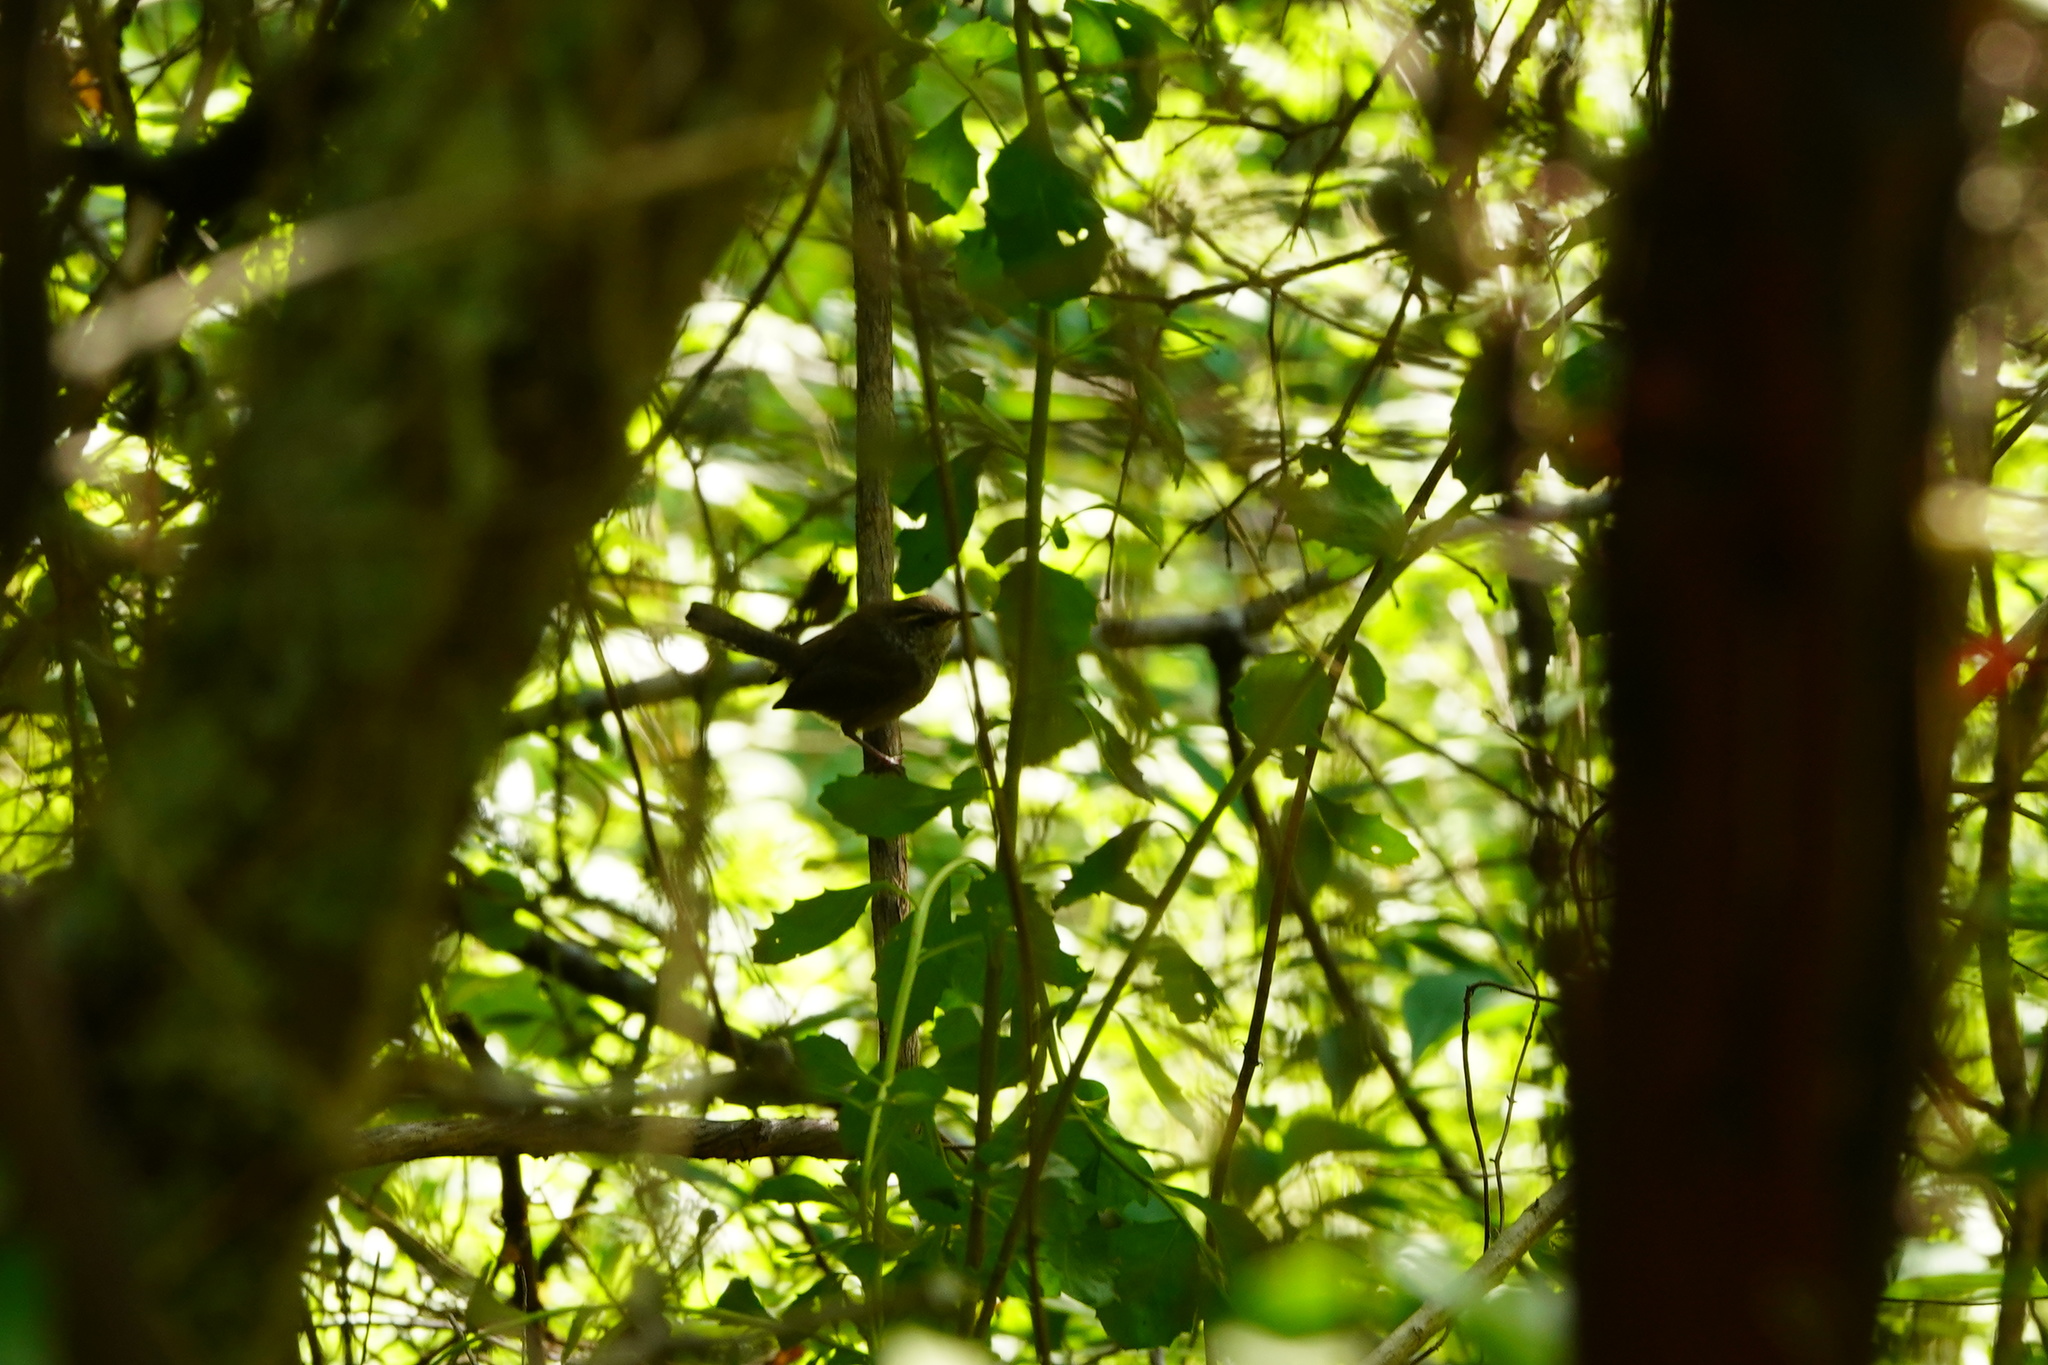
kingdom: Animalia
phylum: Chordata
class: Aves
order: Passeriformes
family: Troglodytidae
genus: Thryomanes
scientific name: Thryomanes bewickii
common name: Bewick's wren
